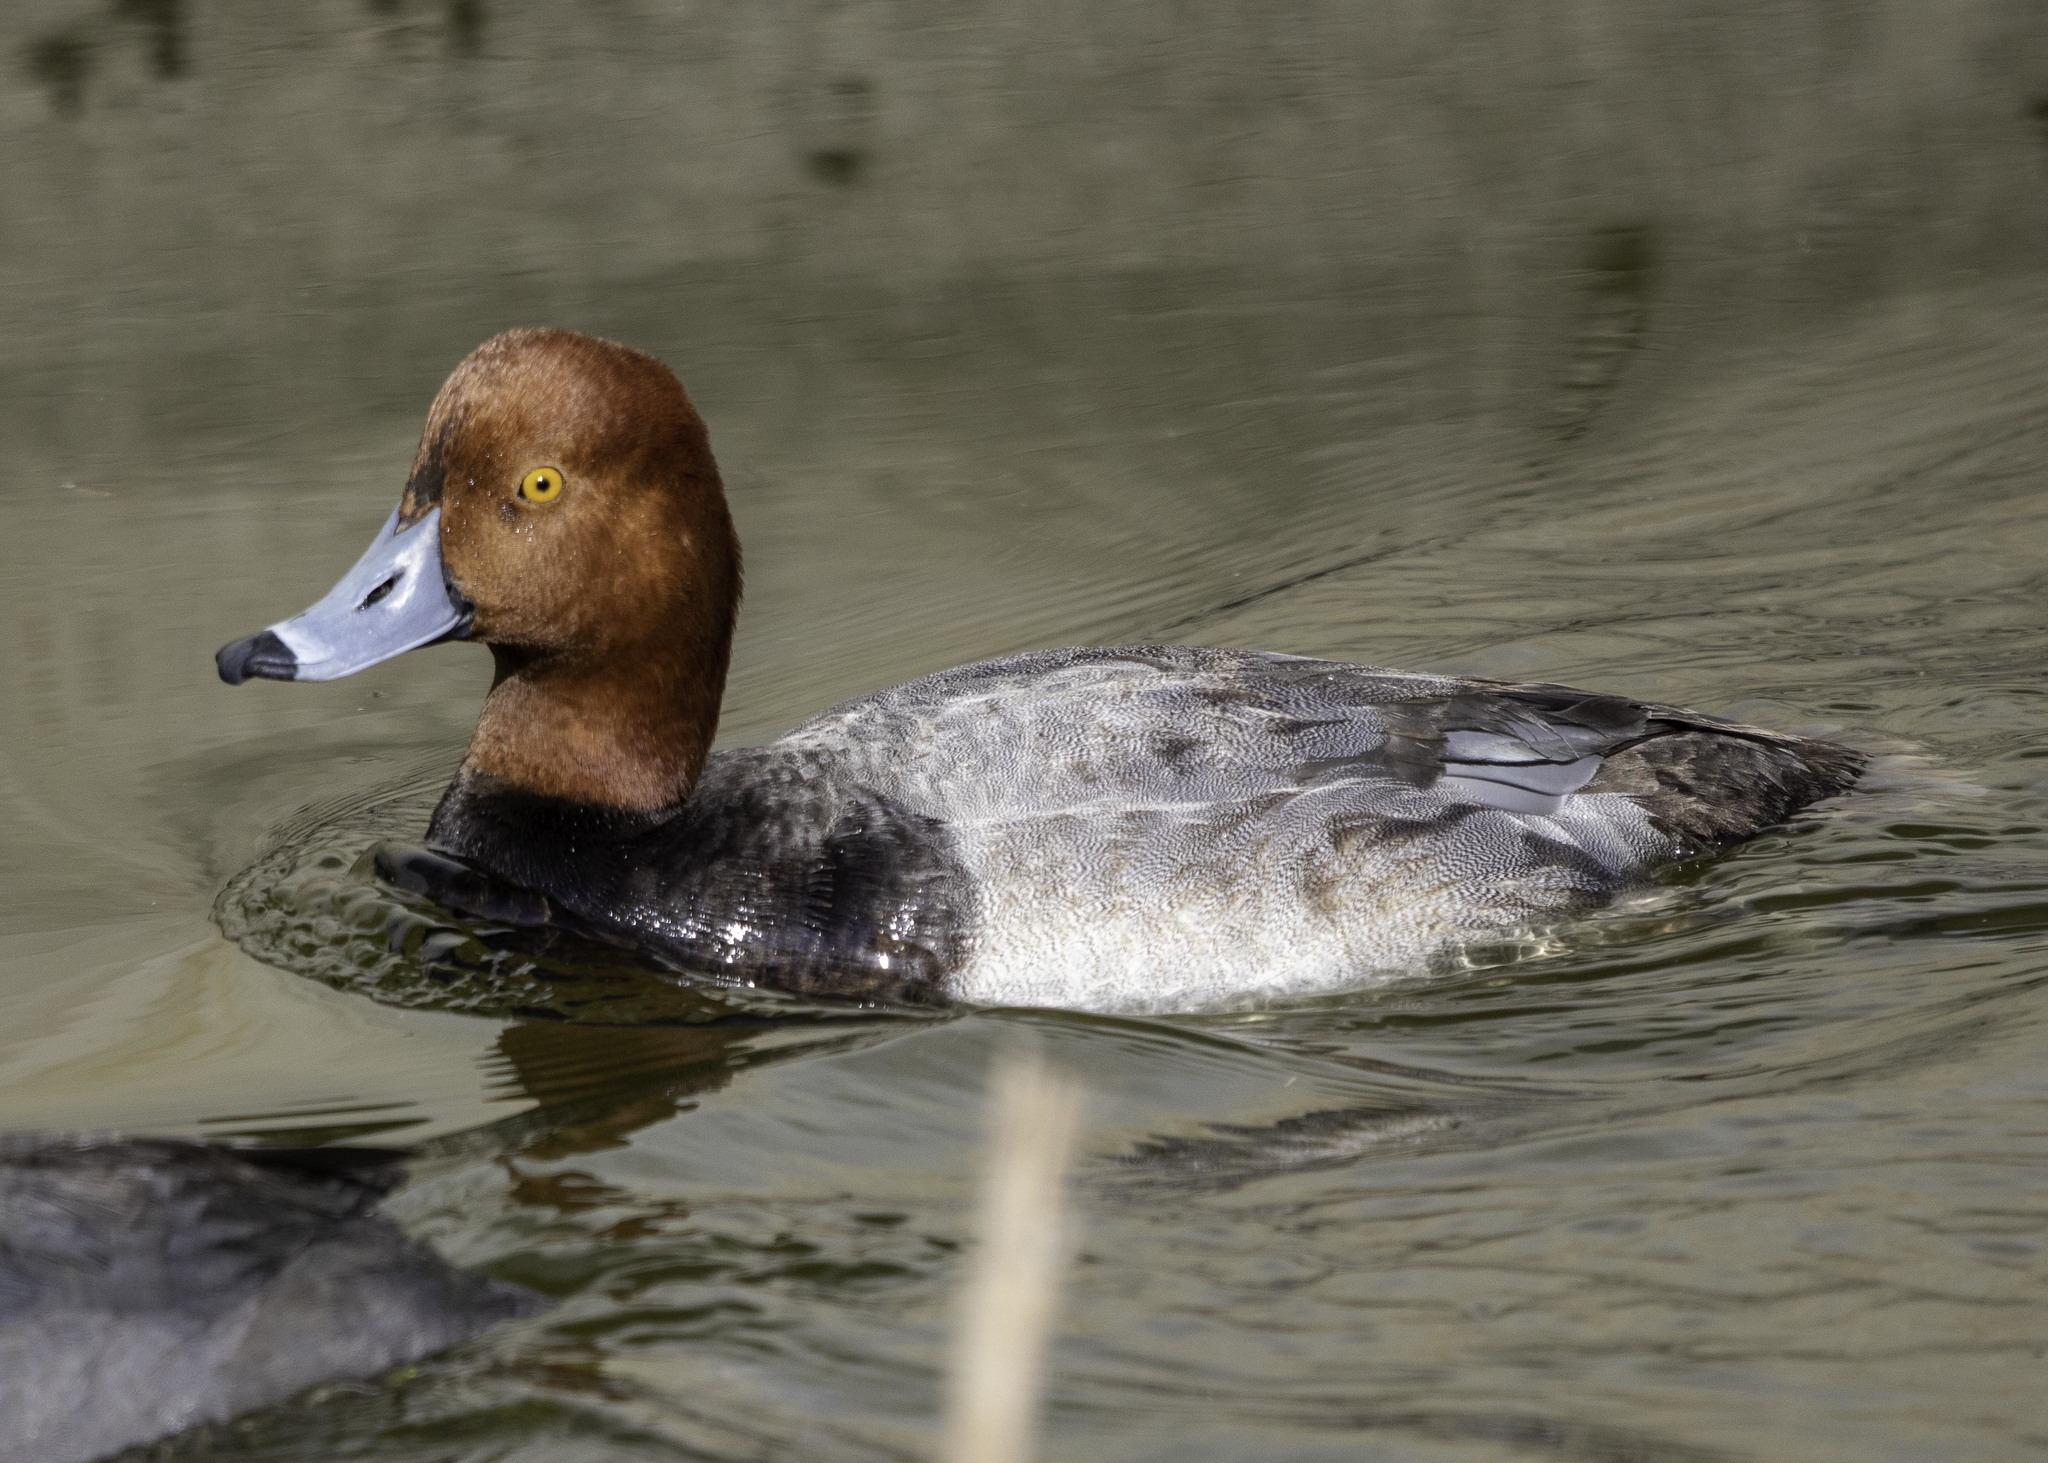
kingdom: Animalia
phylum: Chordata
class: Aves
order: Anseriformes
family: Anatidae
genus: Aythya
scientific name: Aythya americana
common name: Redhead
